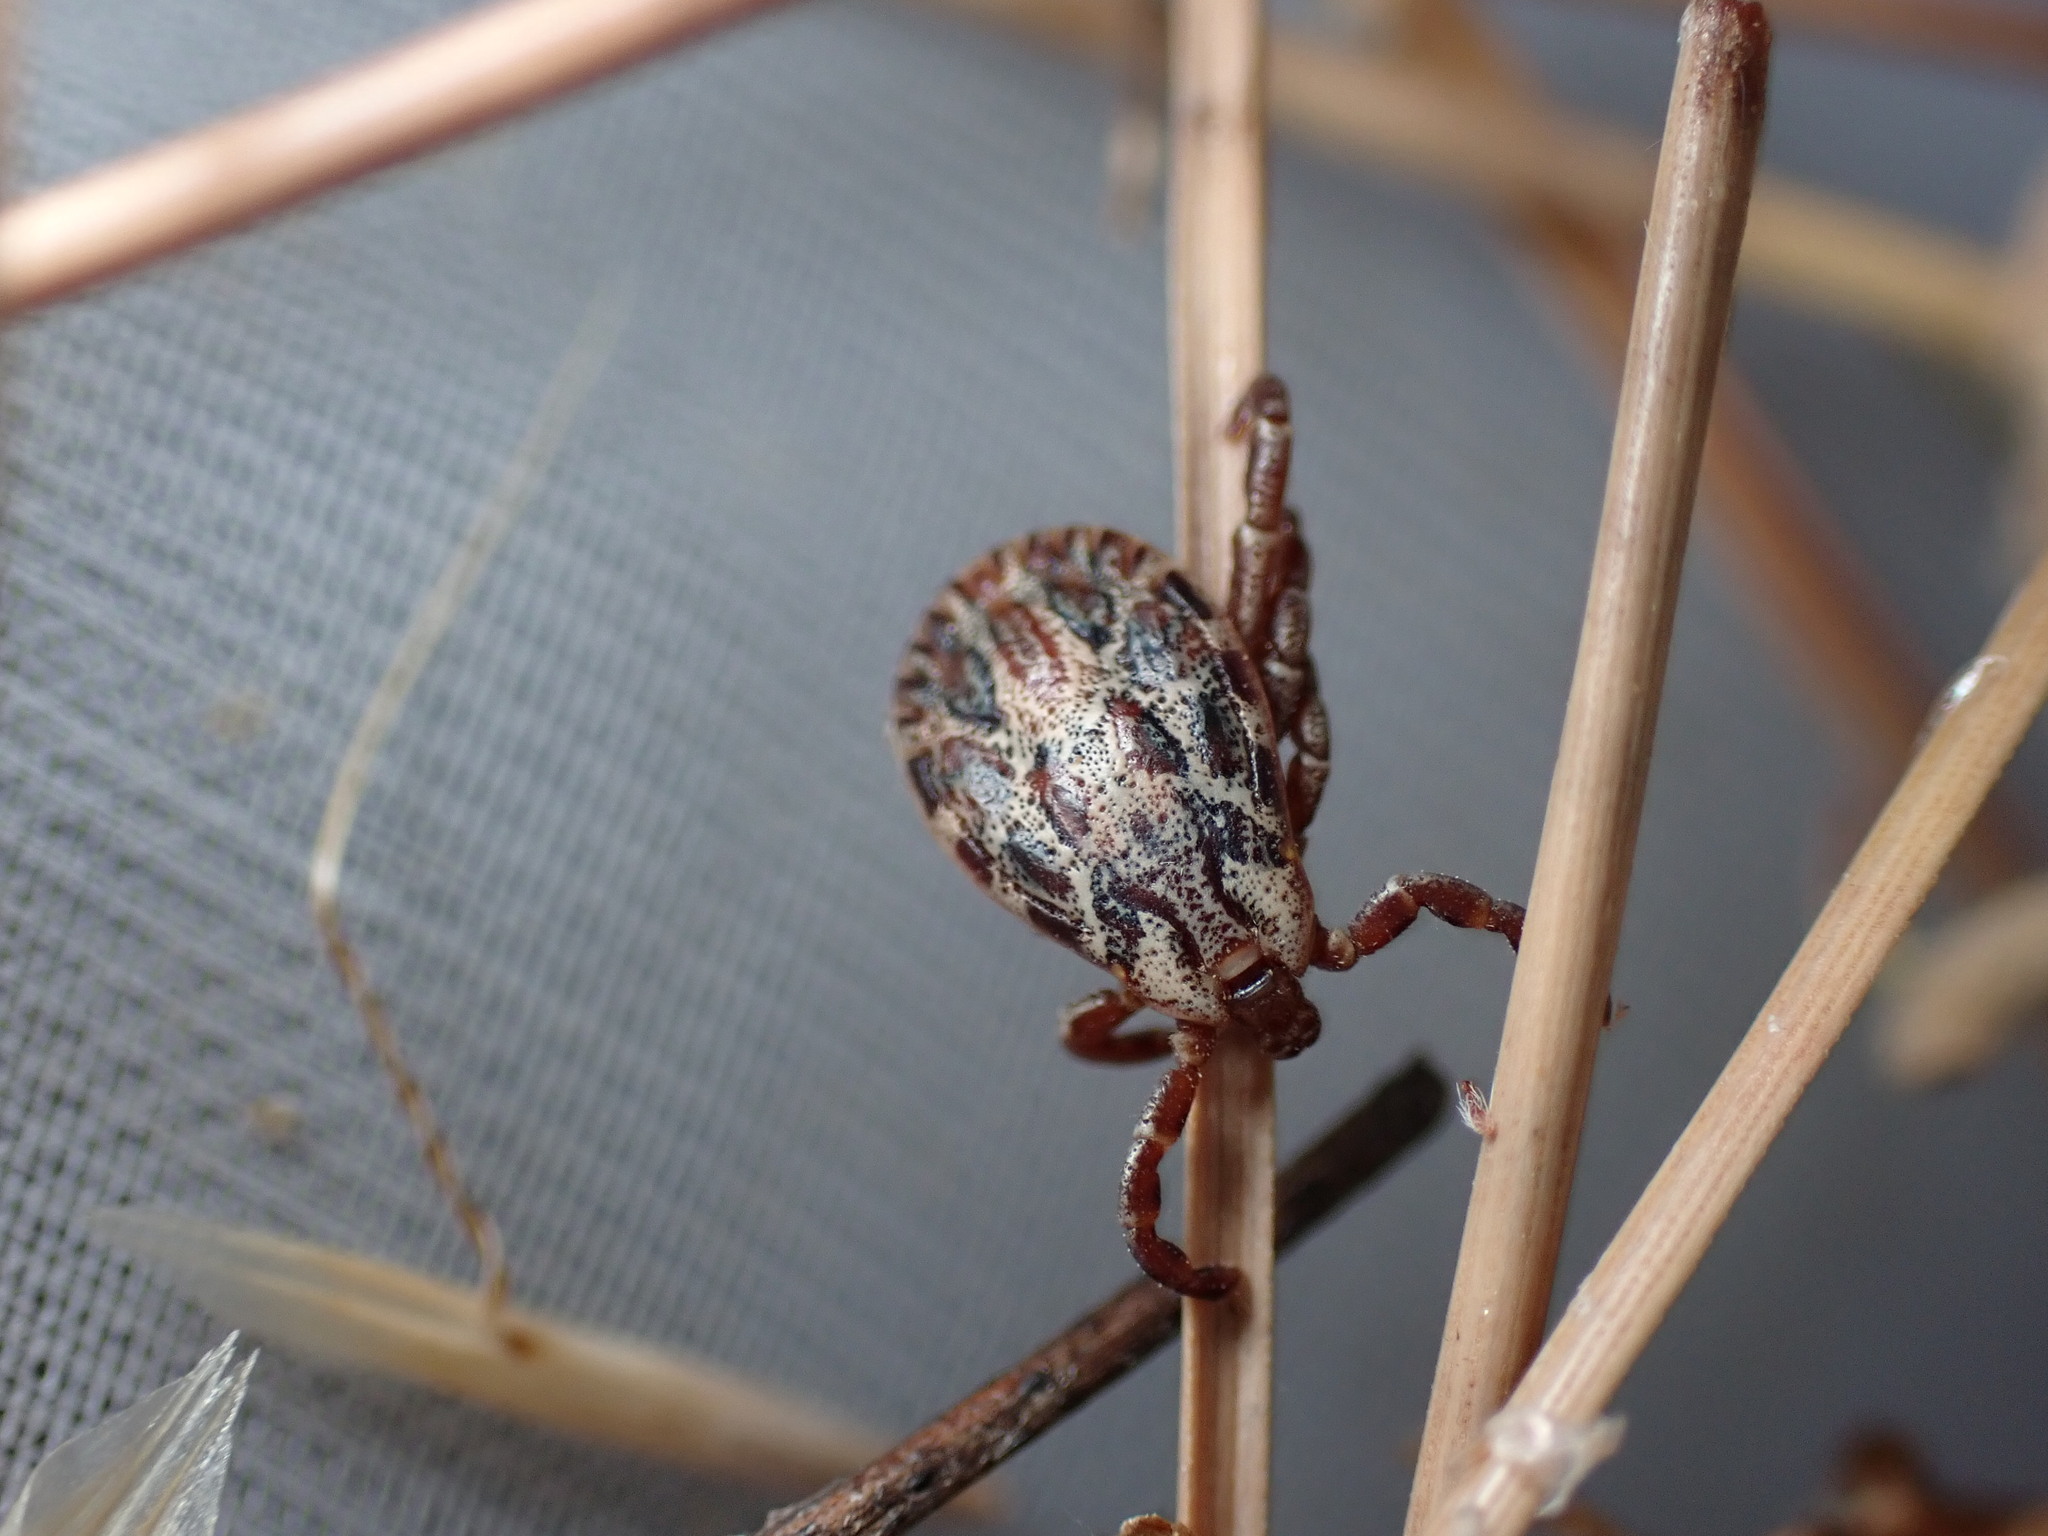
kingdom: Animalia
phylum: Arthropoda
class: Arachnida
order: Ixodida
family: Ixodidae
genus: Dermacentor
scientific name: Dermacentor marginatus
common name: Ornate sheep tick
